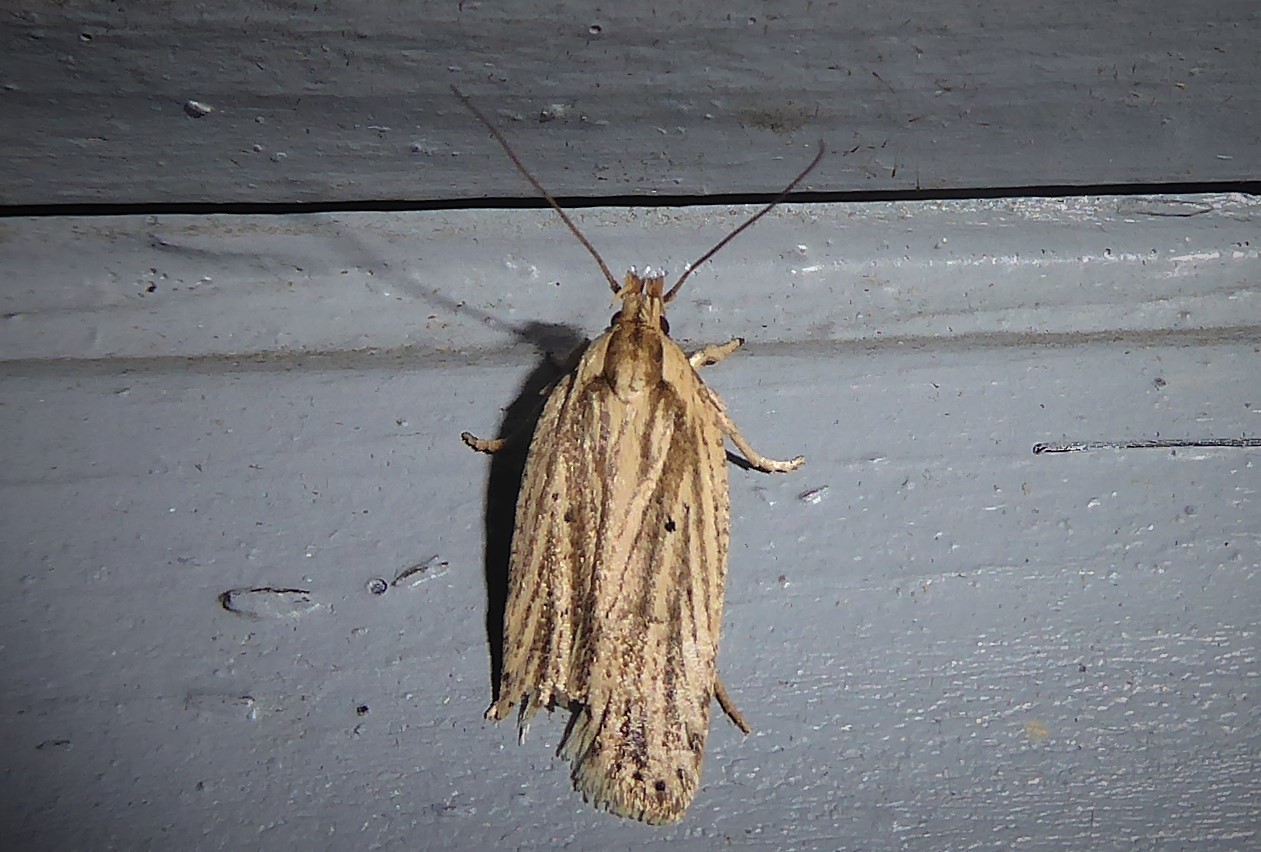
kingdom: Animalia
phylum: Arthropoda
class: Insecta
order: Lepidoptera
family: Depressariidae
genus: Agonopterix
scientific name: Agonopterix
